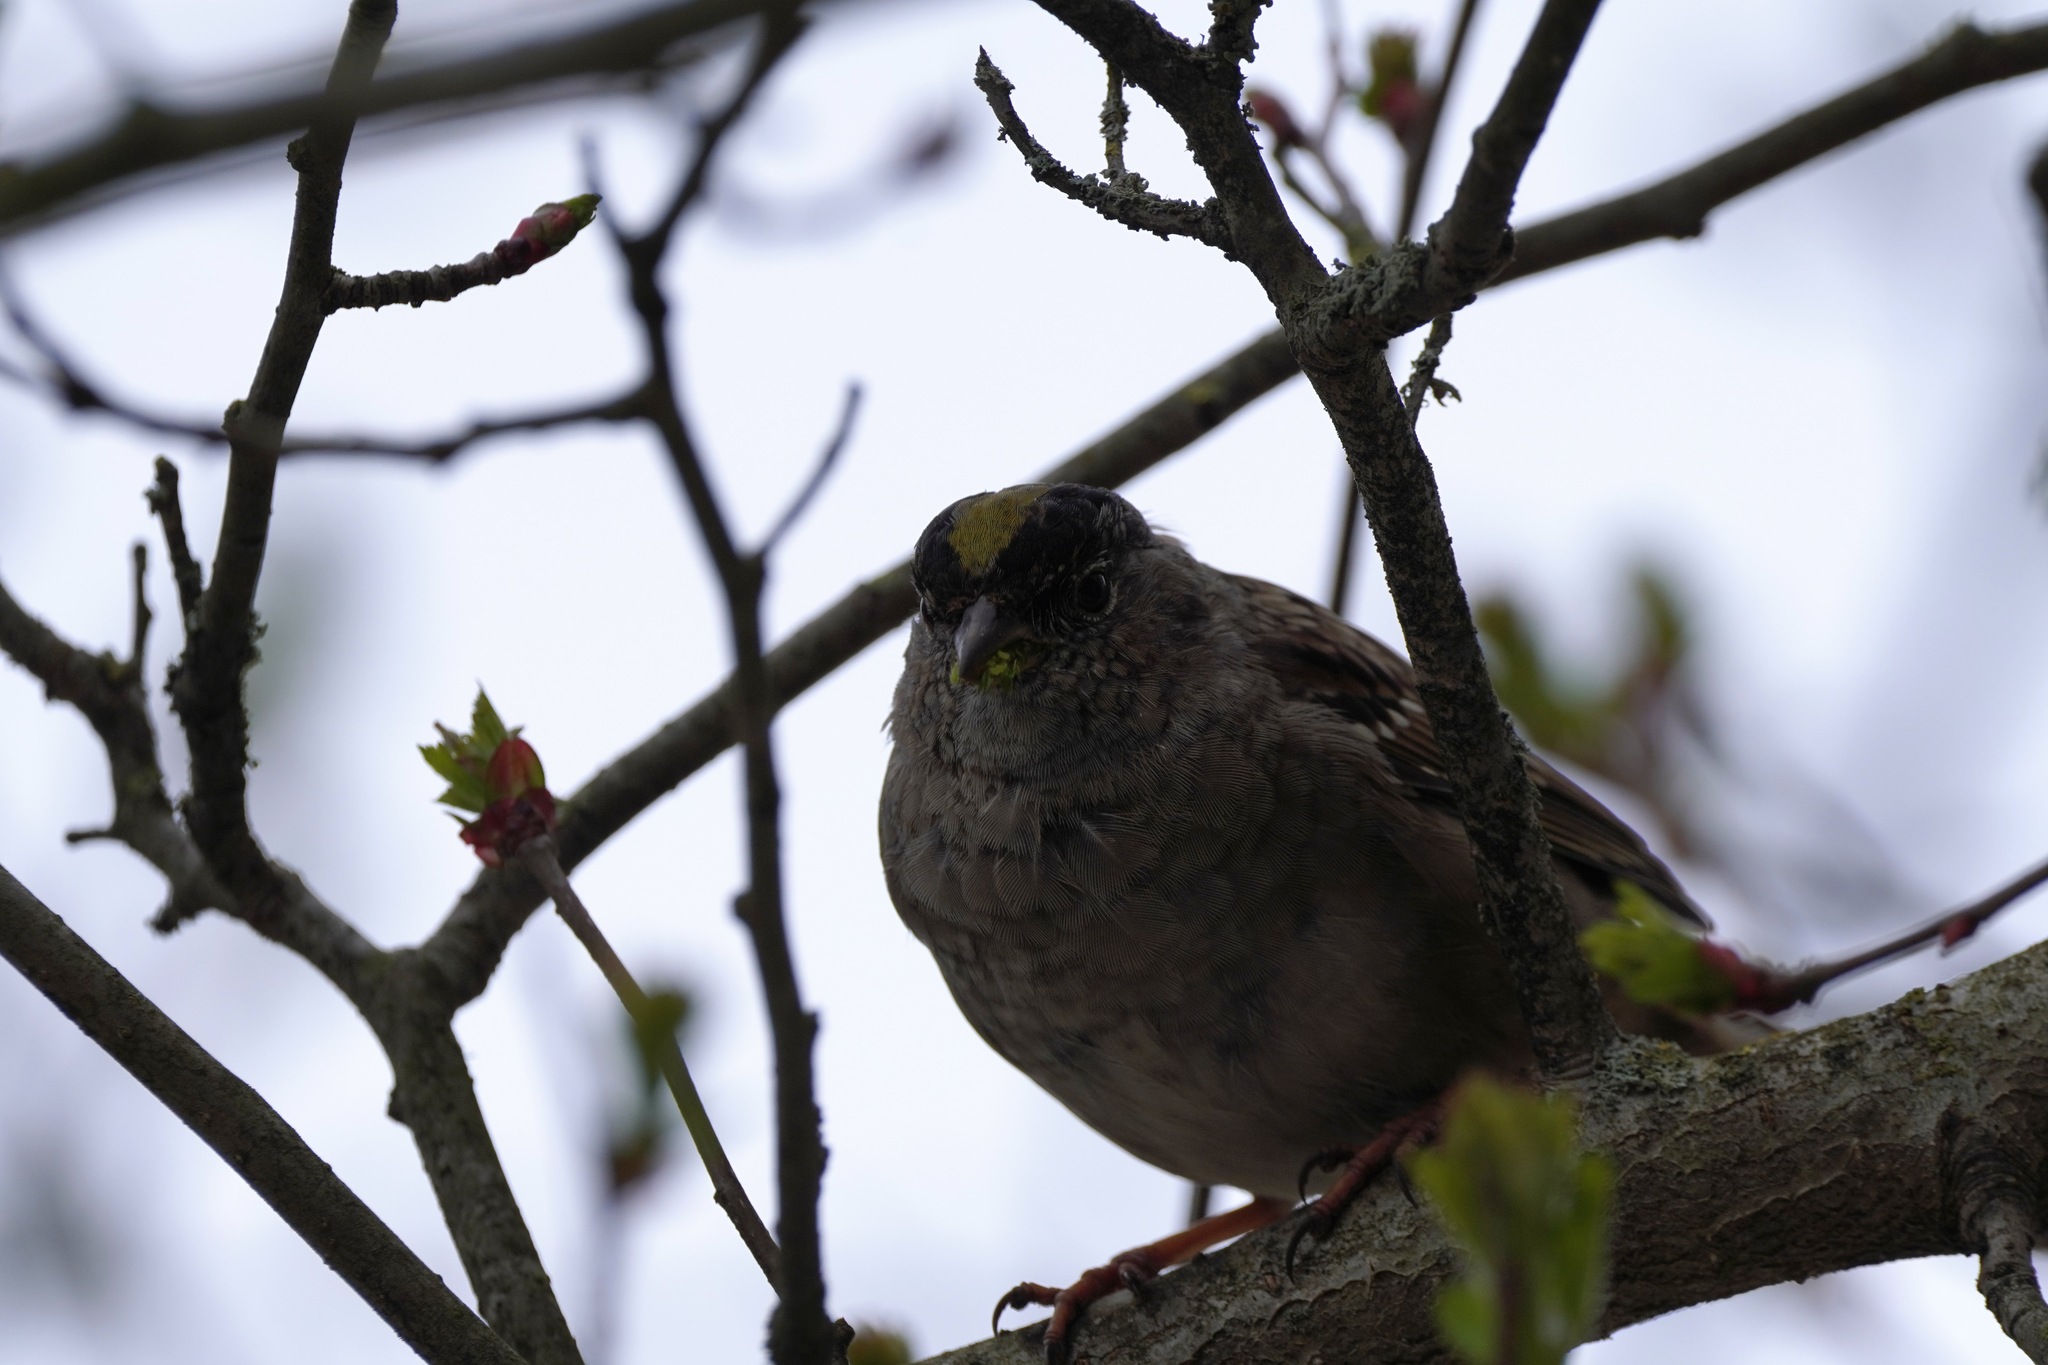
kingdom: Animalia
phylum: Chordata
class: Aves
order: Passeriformes
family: Passerellidae
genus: Zonotrichia
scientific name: Zonotrichia atricapilla
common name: Golden-crowned sparrow
